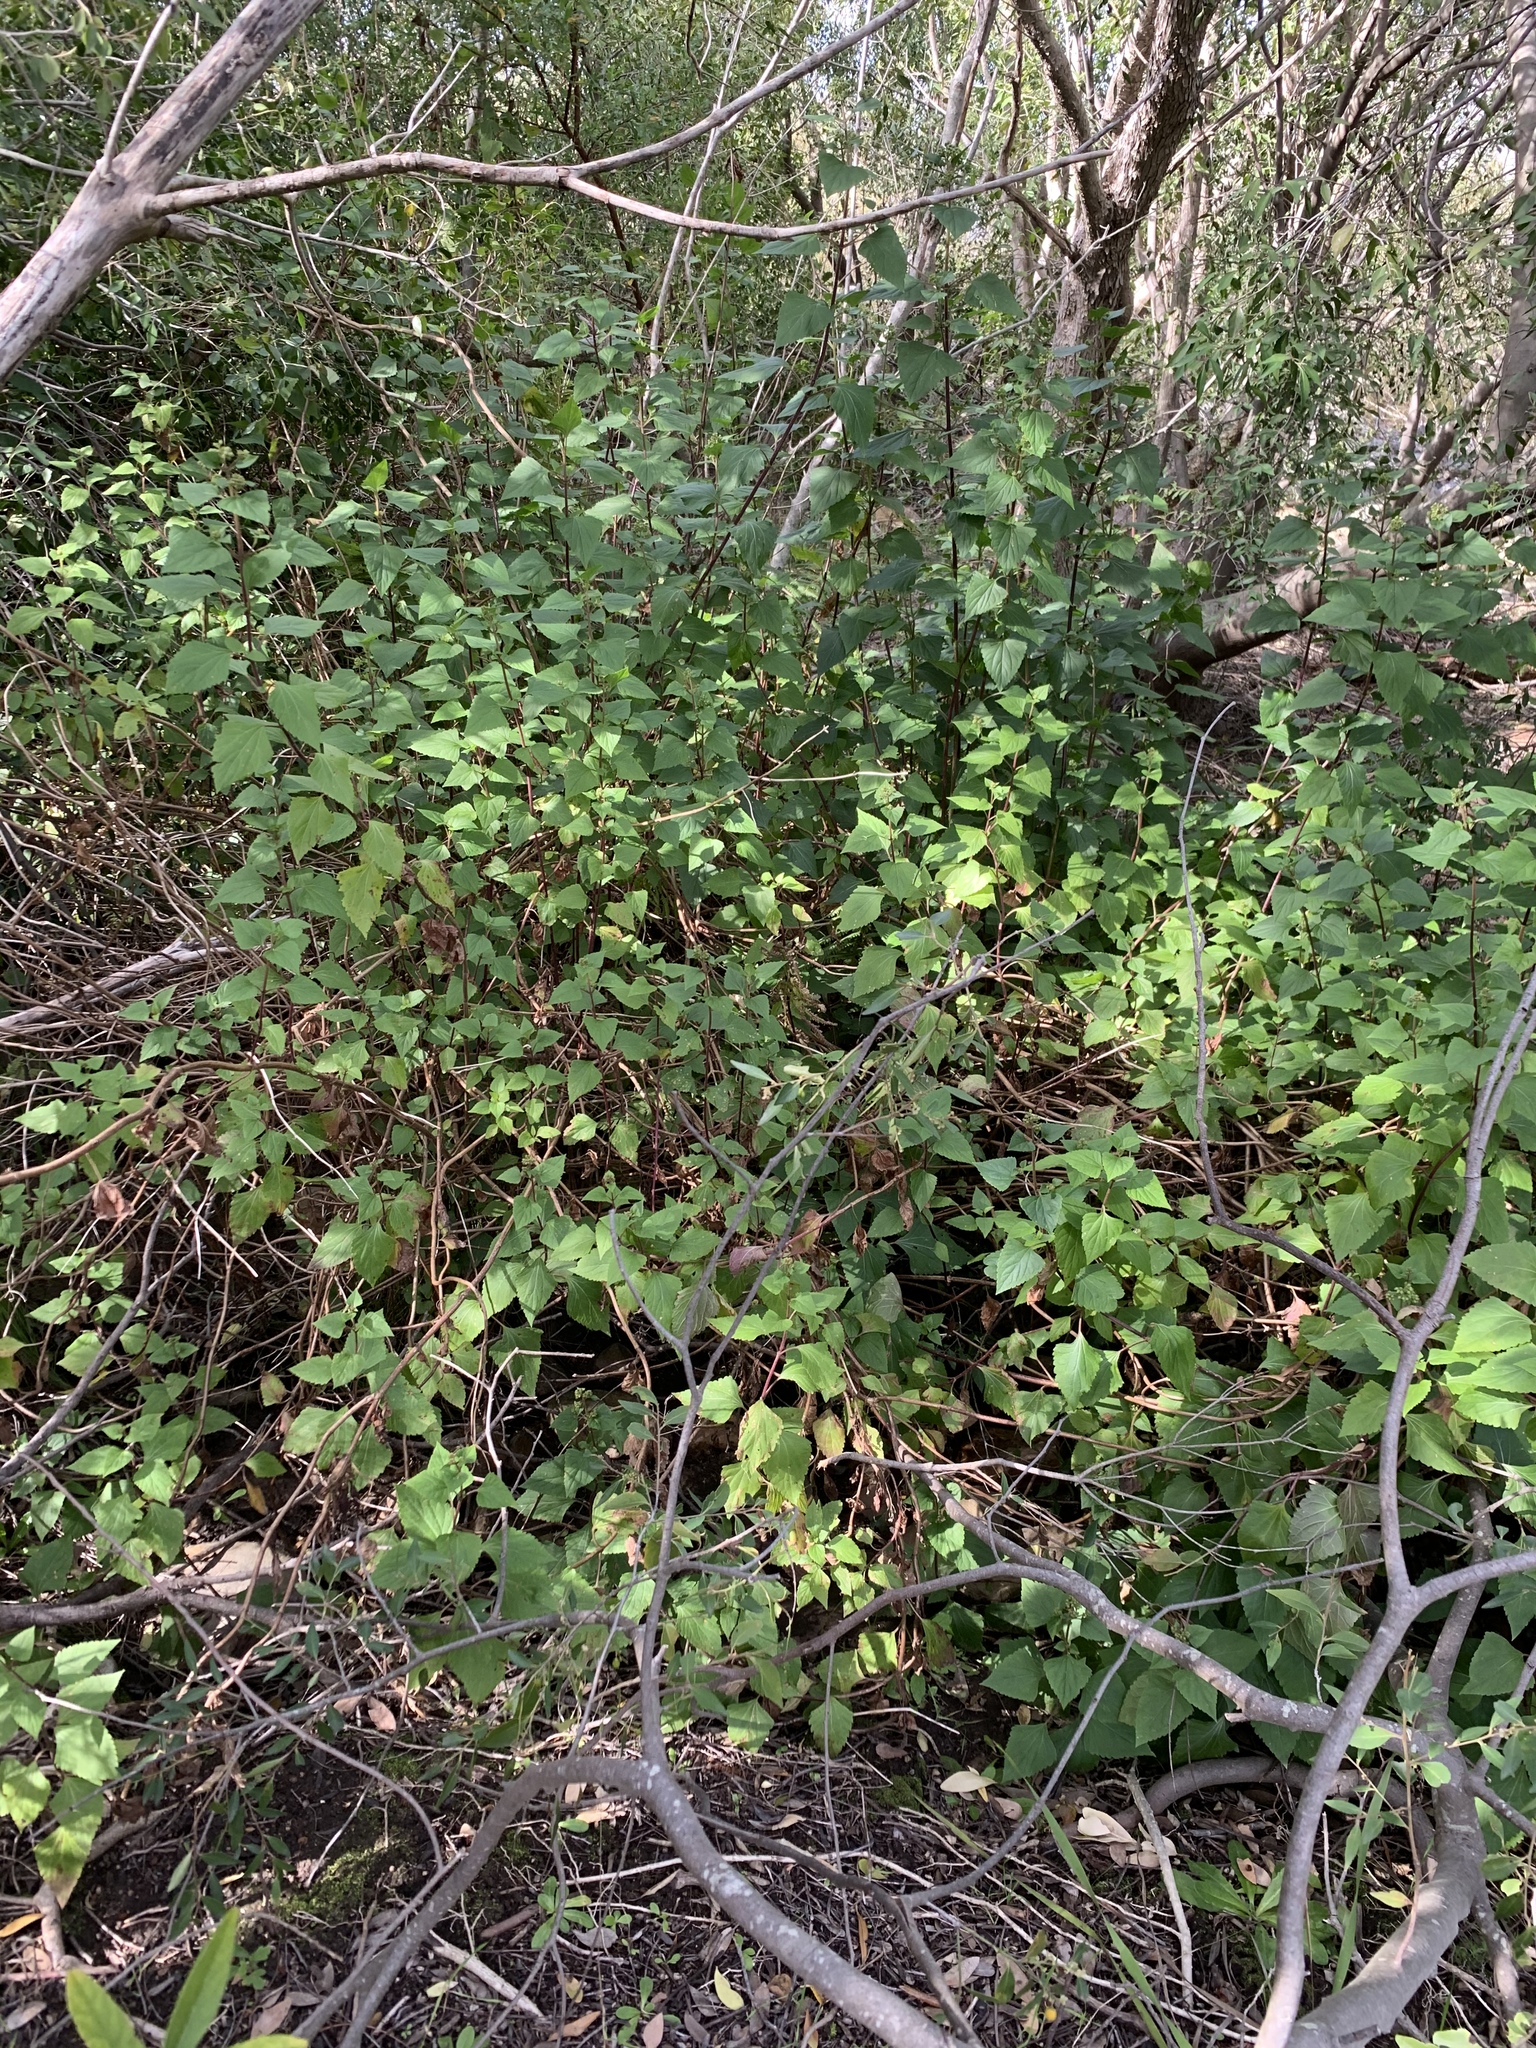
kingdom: Plantae
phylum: Tracheophyta
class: Magnoliopsida
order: Asterales
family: Asteraceae
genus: Ageratina
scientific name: Ageratina adenophora
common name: Sticky snakeroot
